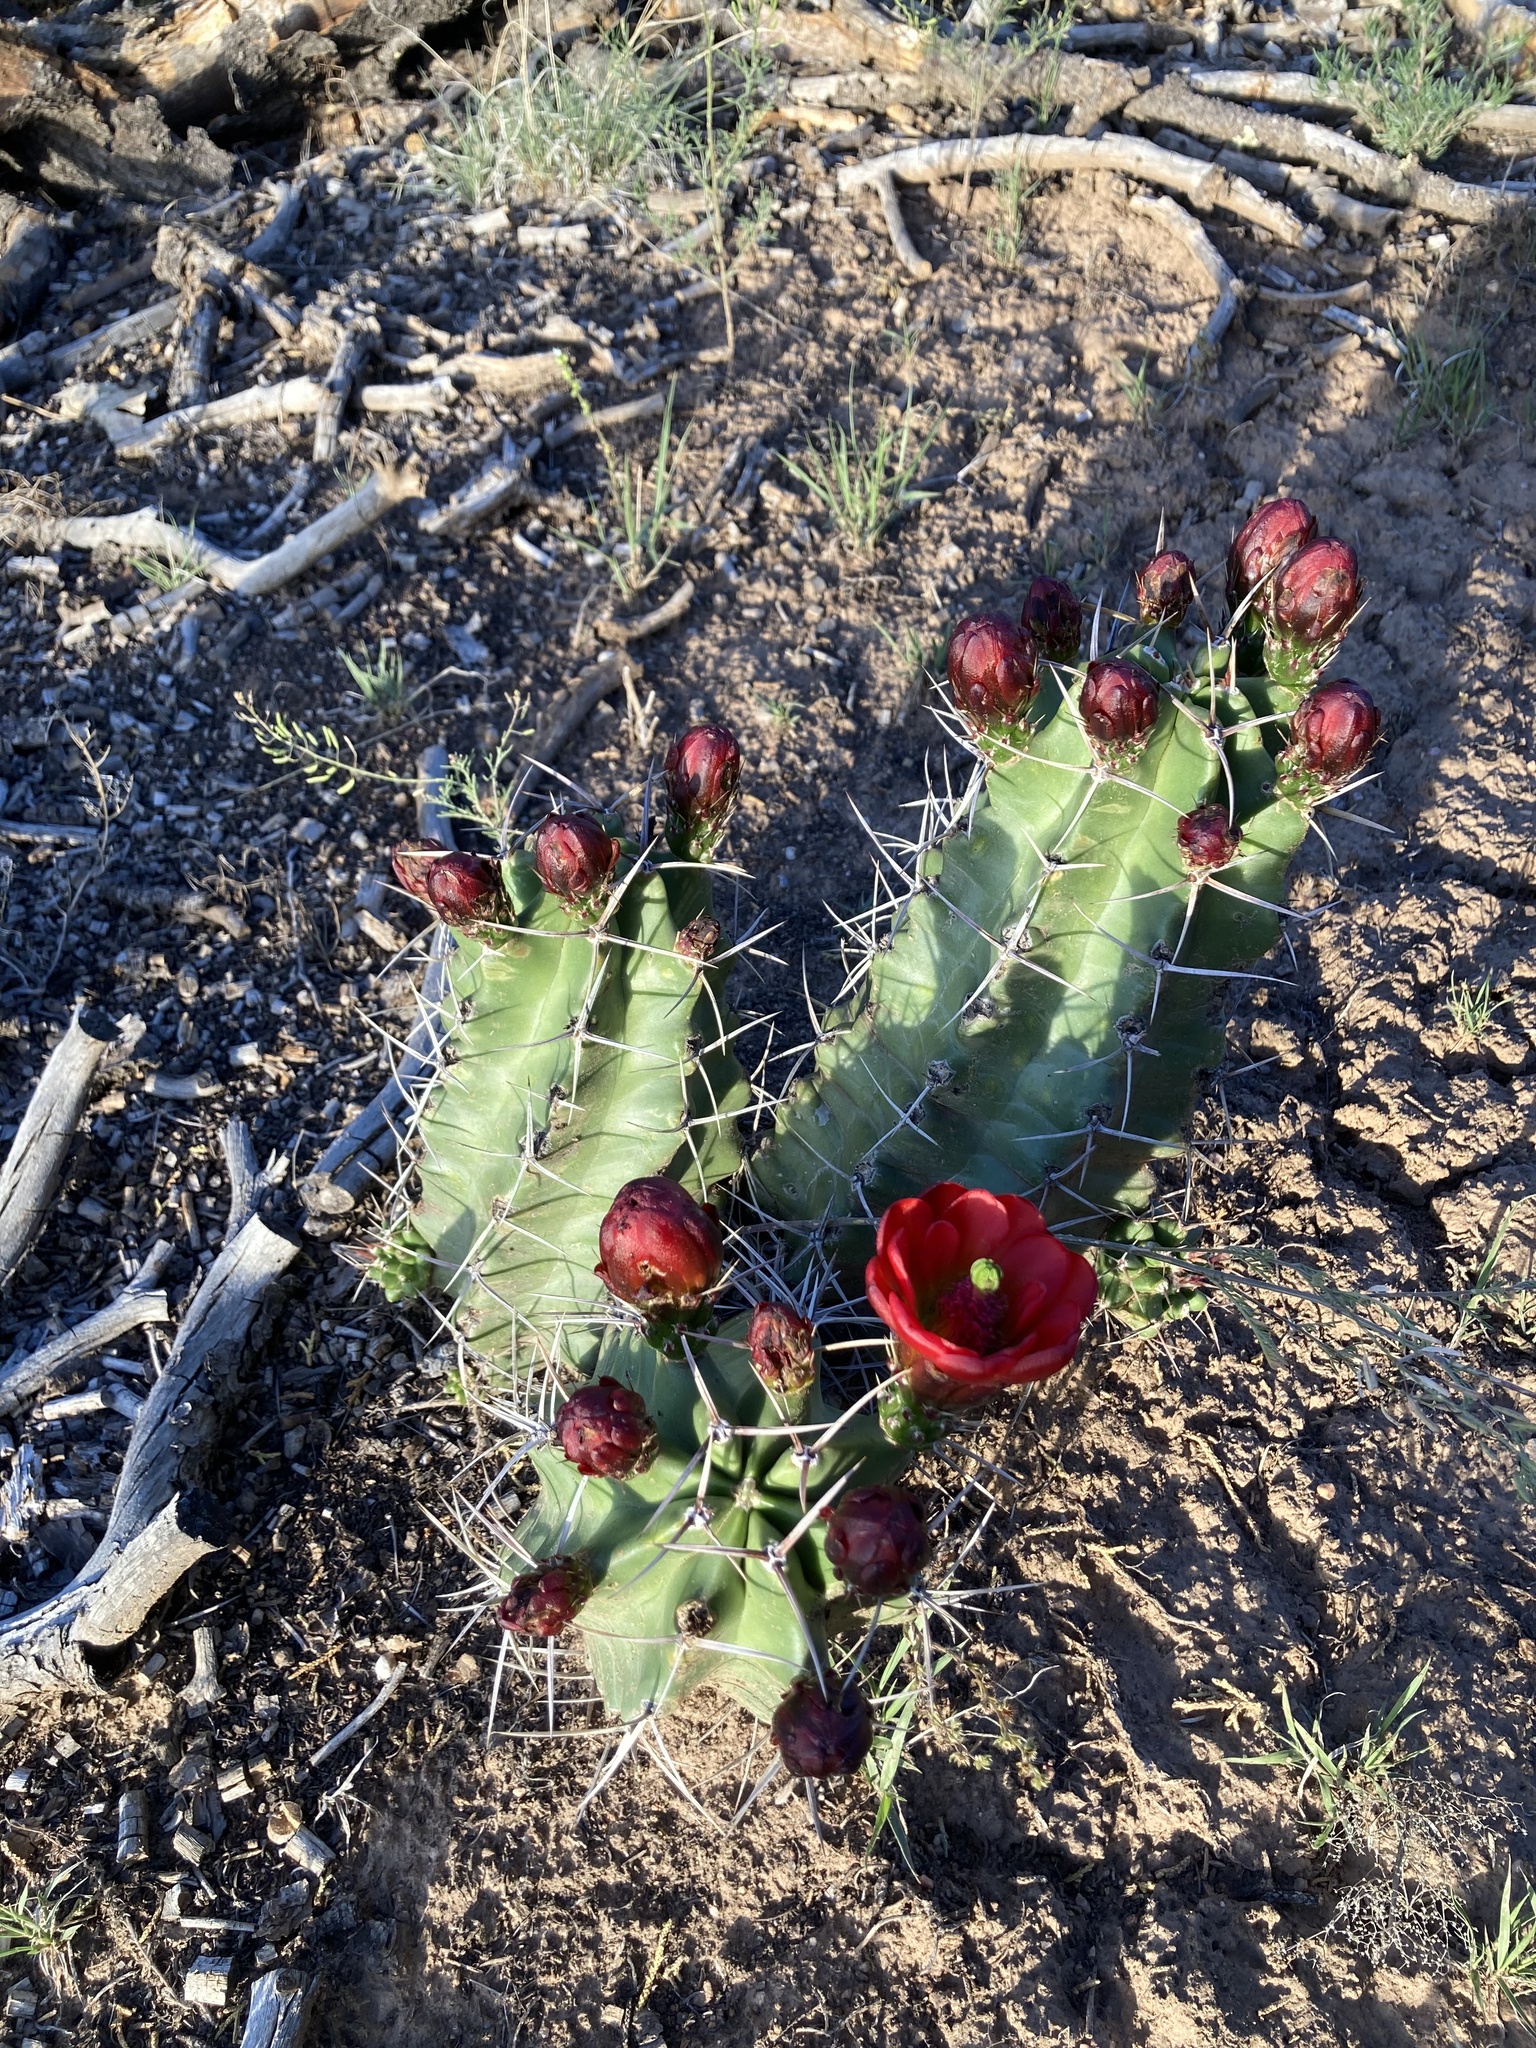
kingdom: Plantae
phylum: Tracheophyta
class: Magnoliopsida
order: Caryophyllales
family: Cactaceae
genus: Echinocereus
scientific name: Echinocereus triglochidiatus
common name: Claretcup hedgehog
